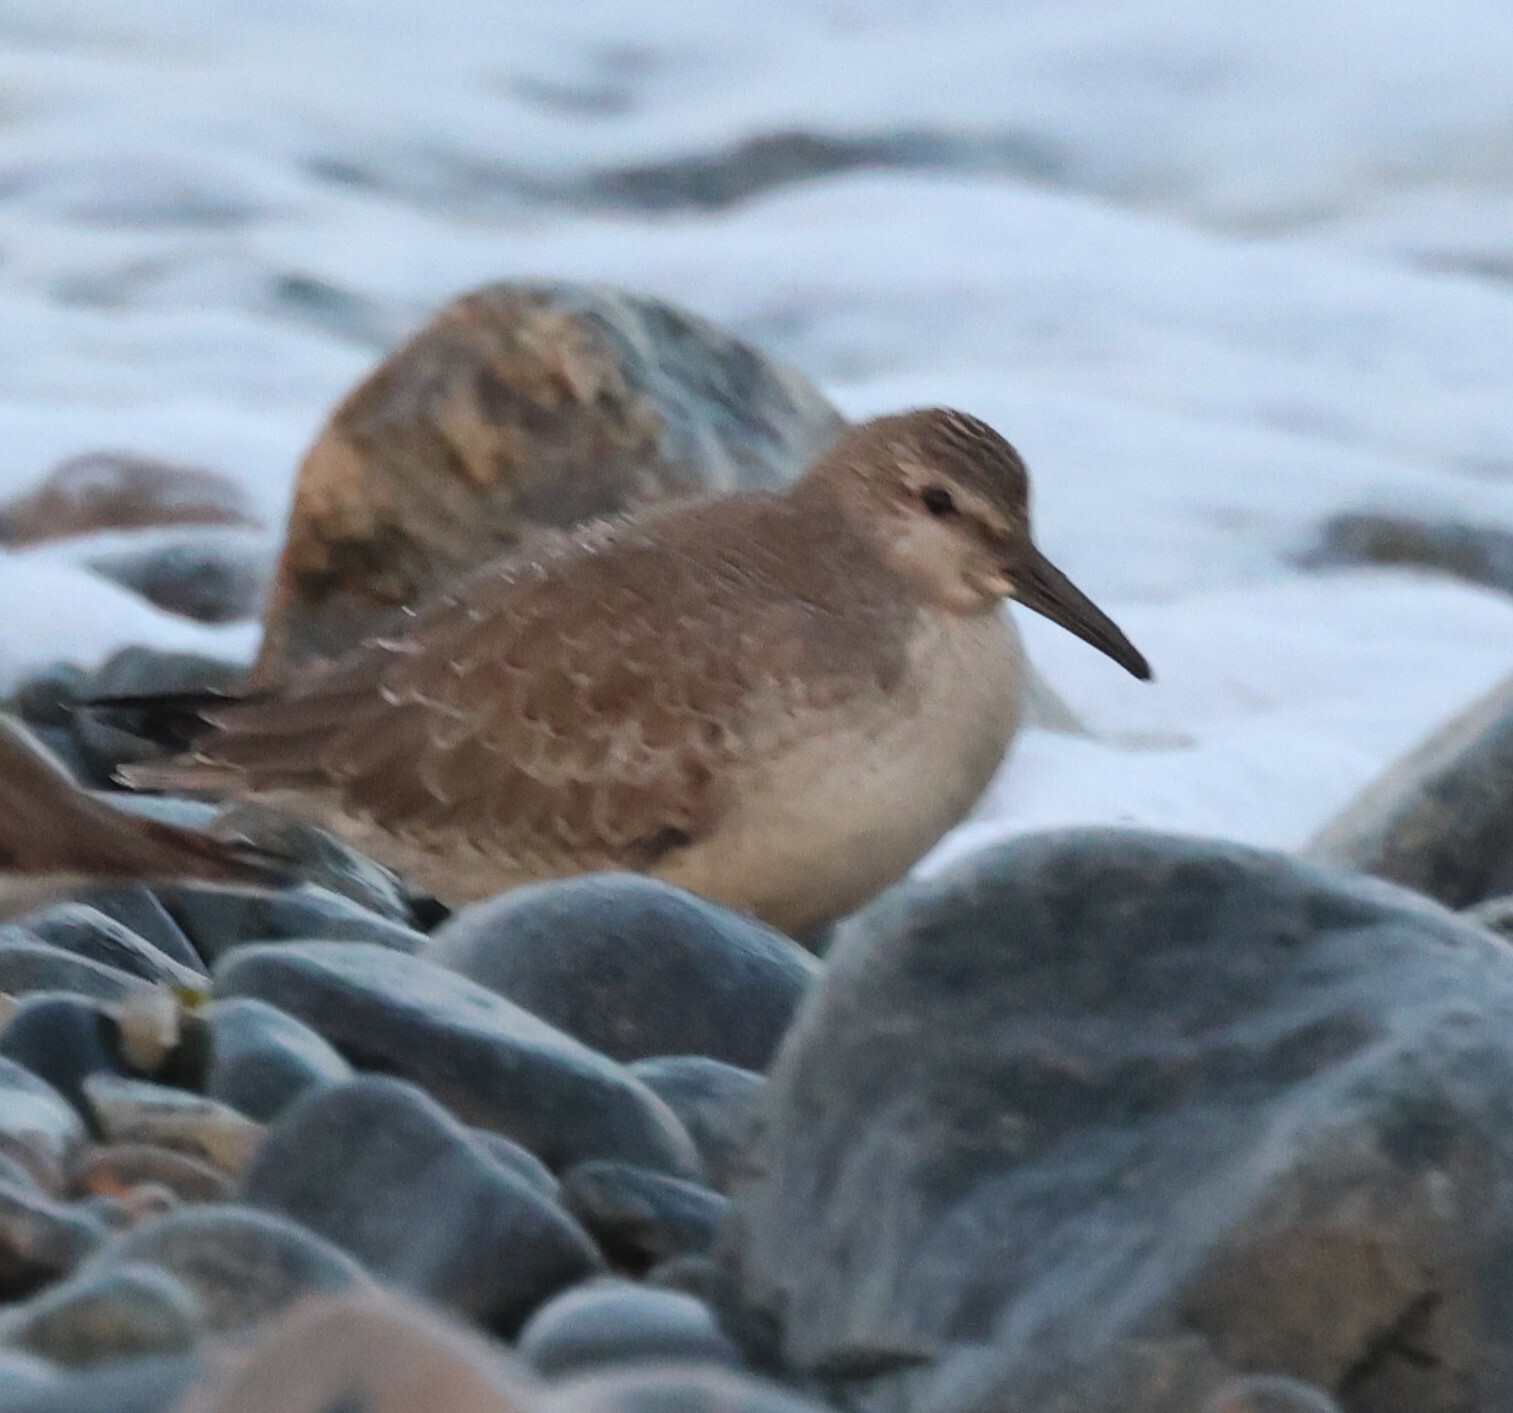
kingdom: Animalia
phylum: Chordata
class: Aves
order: Charadriiformes
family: Scolopacidae
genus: Calidris
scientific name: Calidris canutus
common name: Red knot
